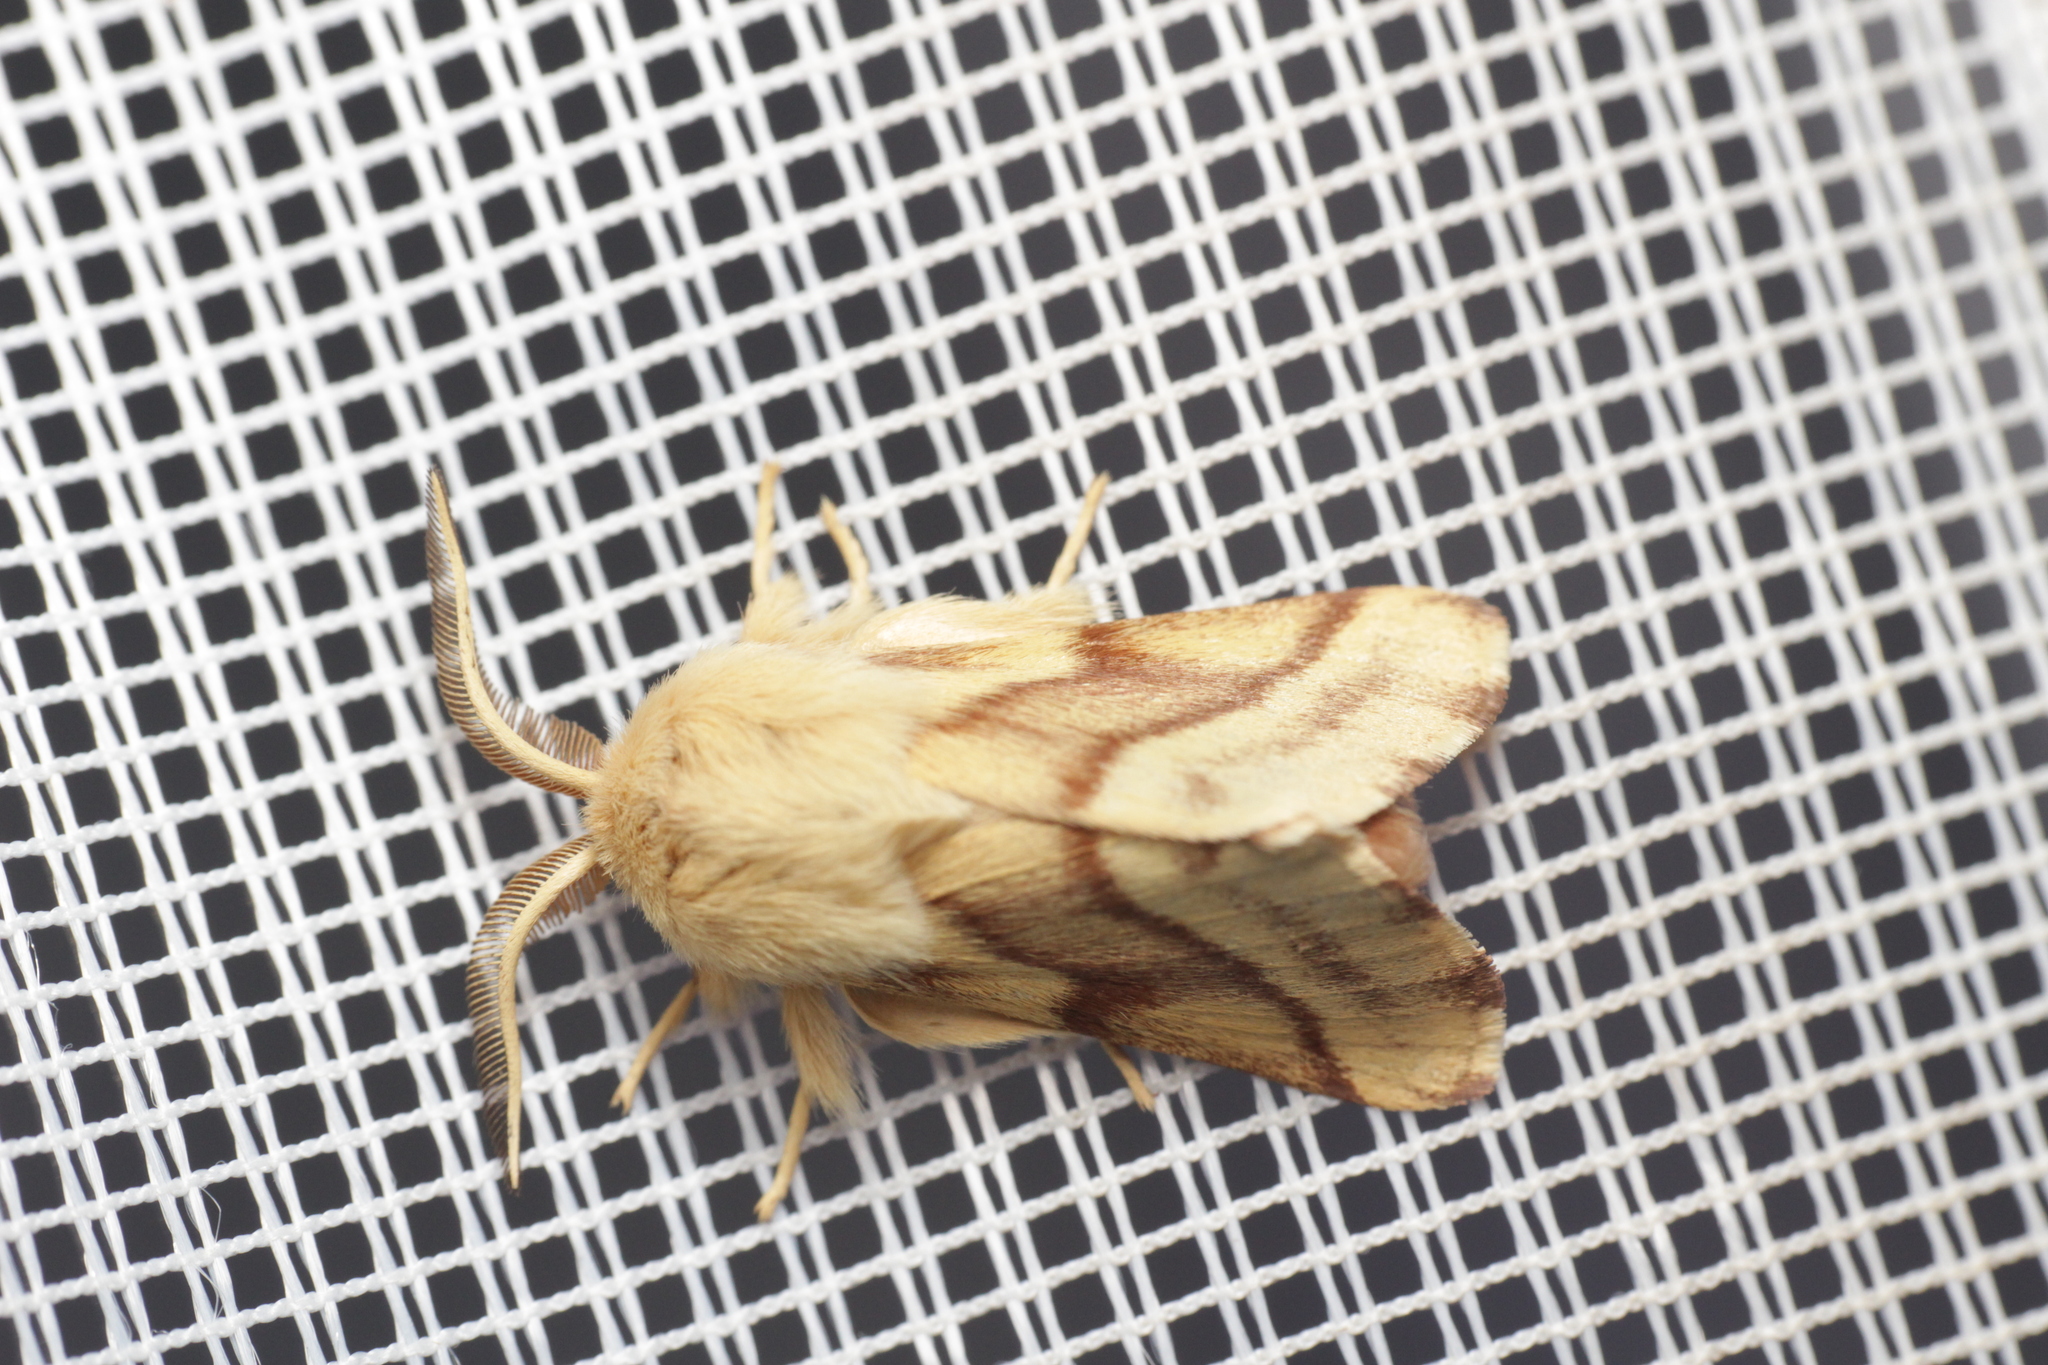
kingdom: Animalia
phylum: Arthropoda
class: Insecta
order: Lepidoptera
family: Lasiocampidae
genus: Malacosoma
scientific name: Malacosoma castrense
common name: Ground lackey
